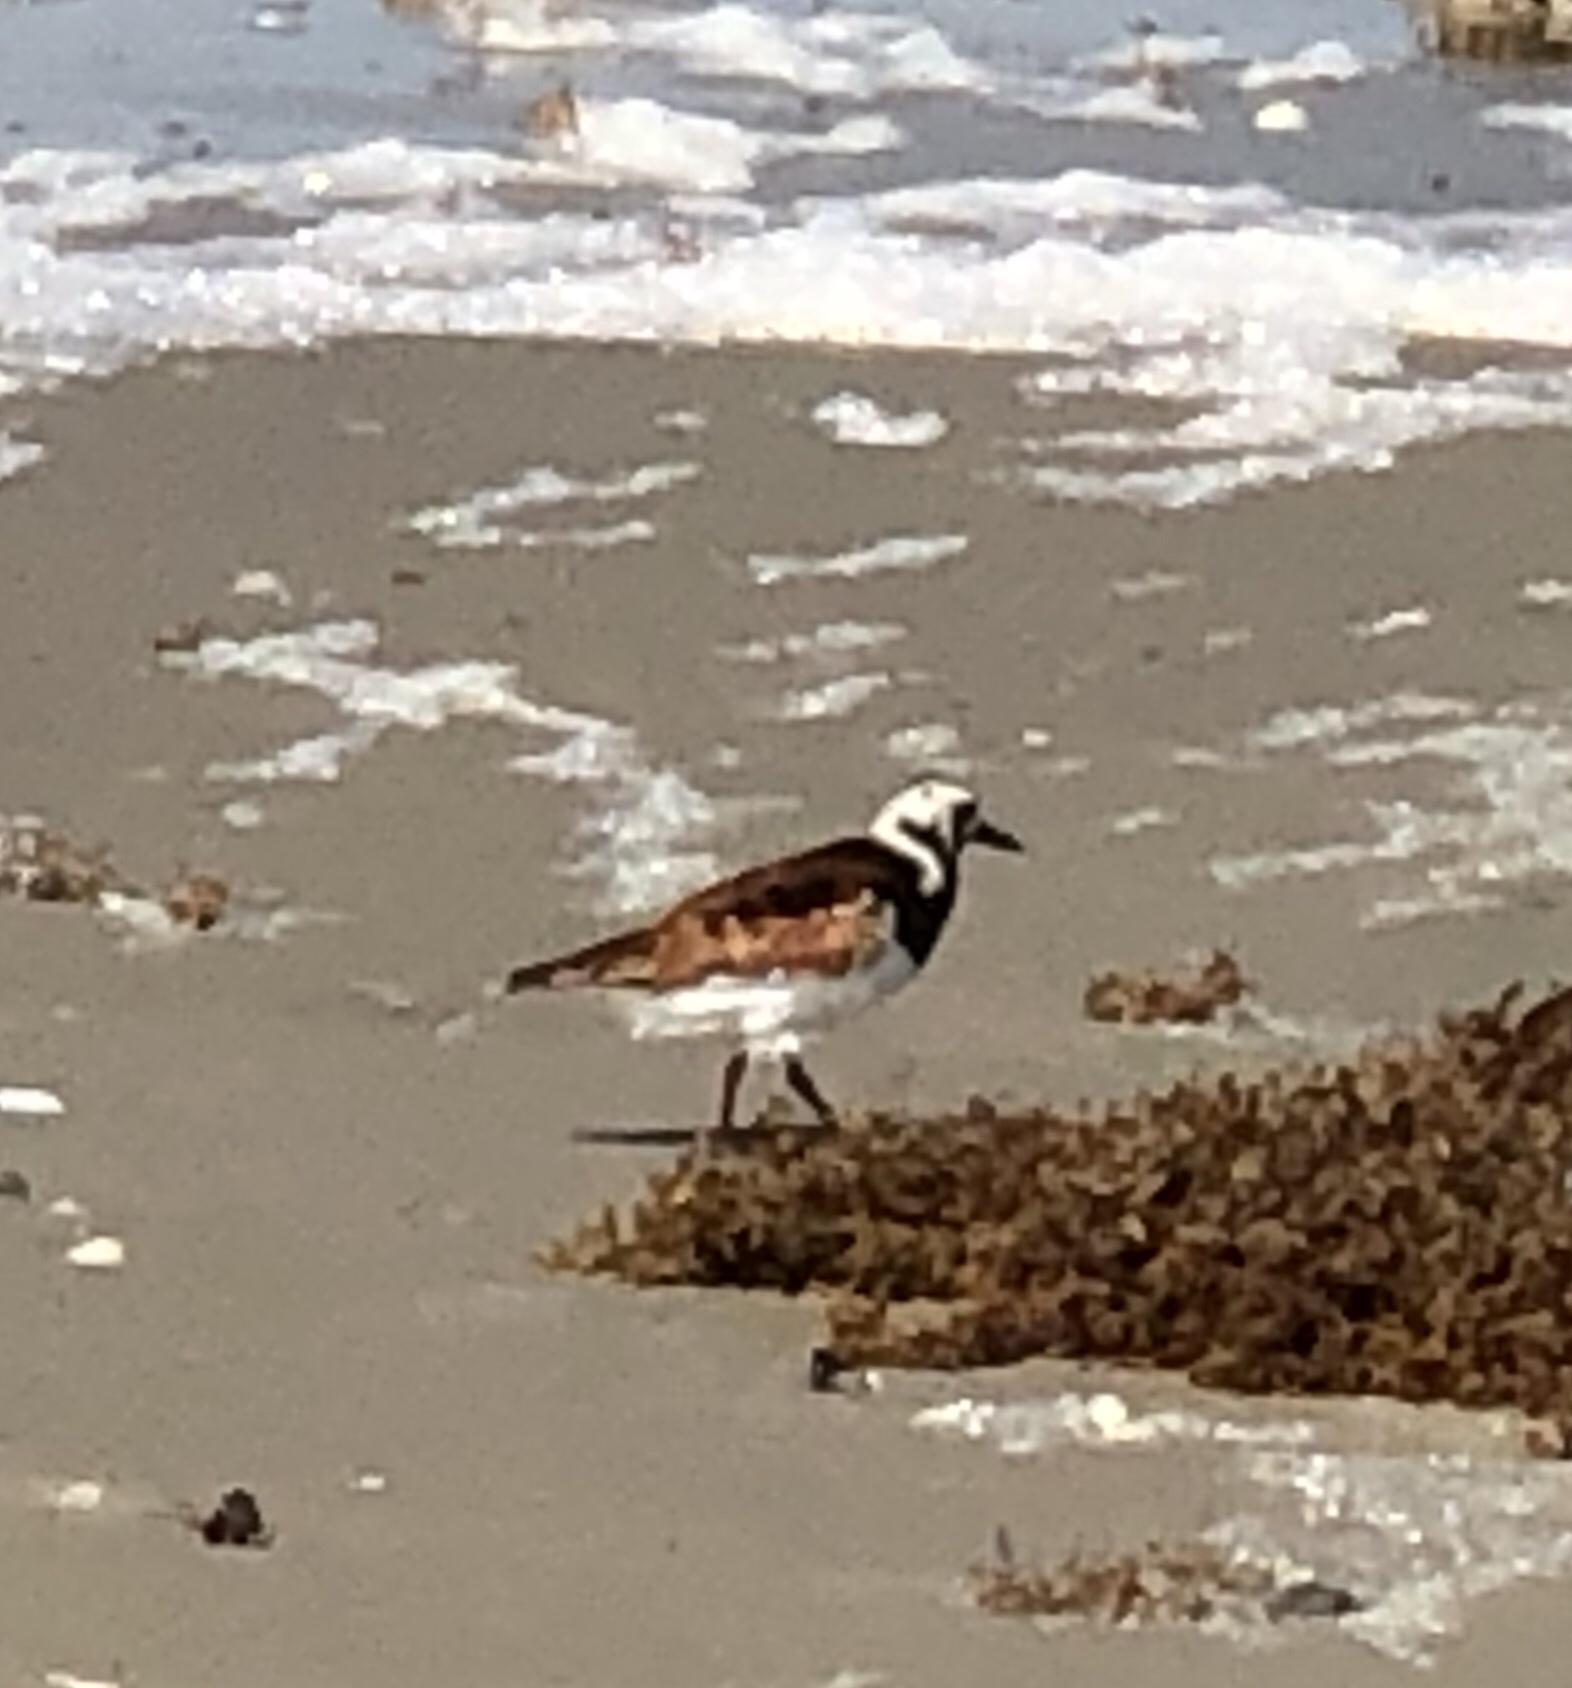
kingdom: Animalia
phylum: Chordata
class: Aves
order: Charadriiformes
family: Scolopacidae
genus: Arenaria
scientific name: Arenaria interpres
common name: Ruddy turnstone
